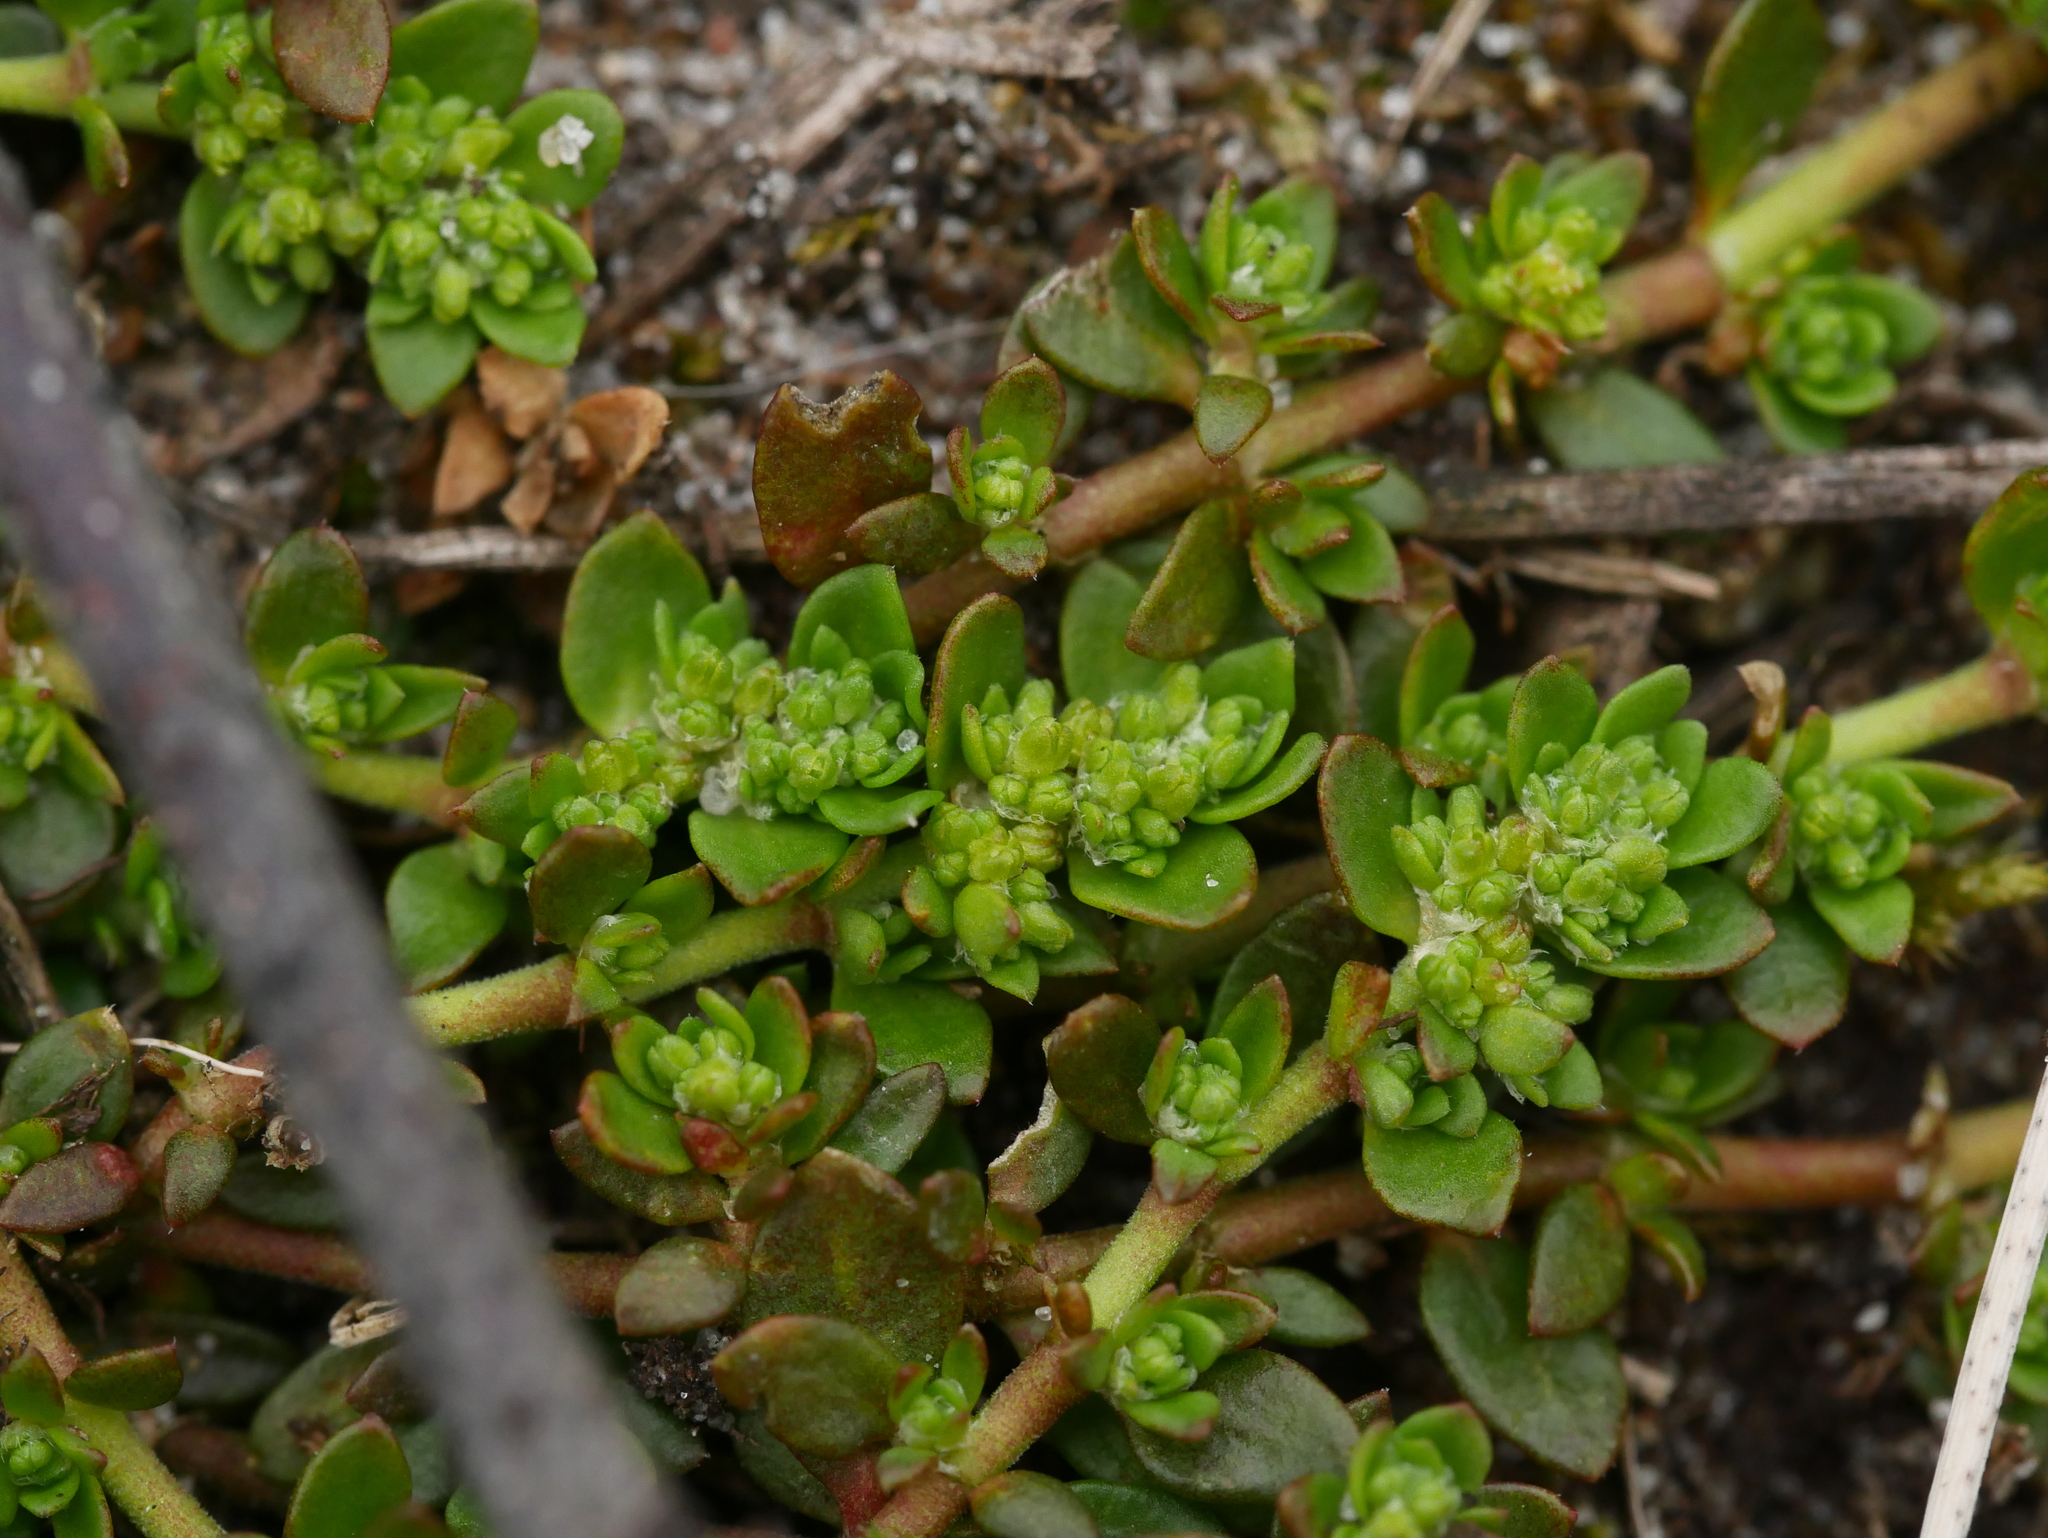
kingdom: Plantae
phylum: Tracheophyta
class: Magnoliopsida
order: Caryophyllales
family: Caryophyllaceae
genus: Herniaria
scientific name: Herniaria glabra
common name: Smooth rupturewort
